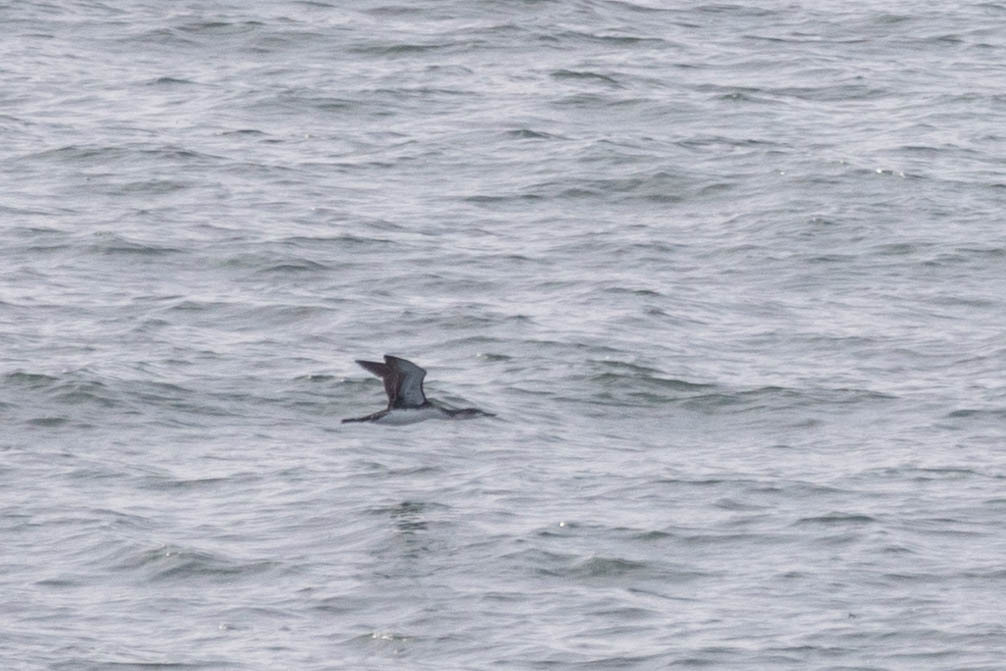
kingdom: Animalia
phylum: Chordata
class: Aves
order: Gaviiformes
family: Gaviidae
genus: Gavia
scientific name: Gavia stellata
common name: Red-throated loon
